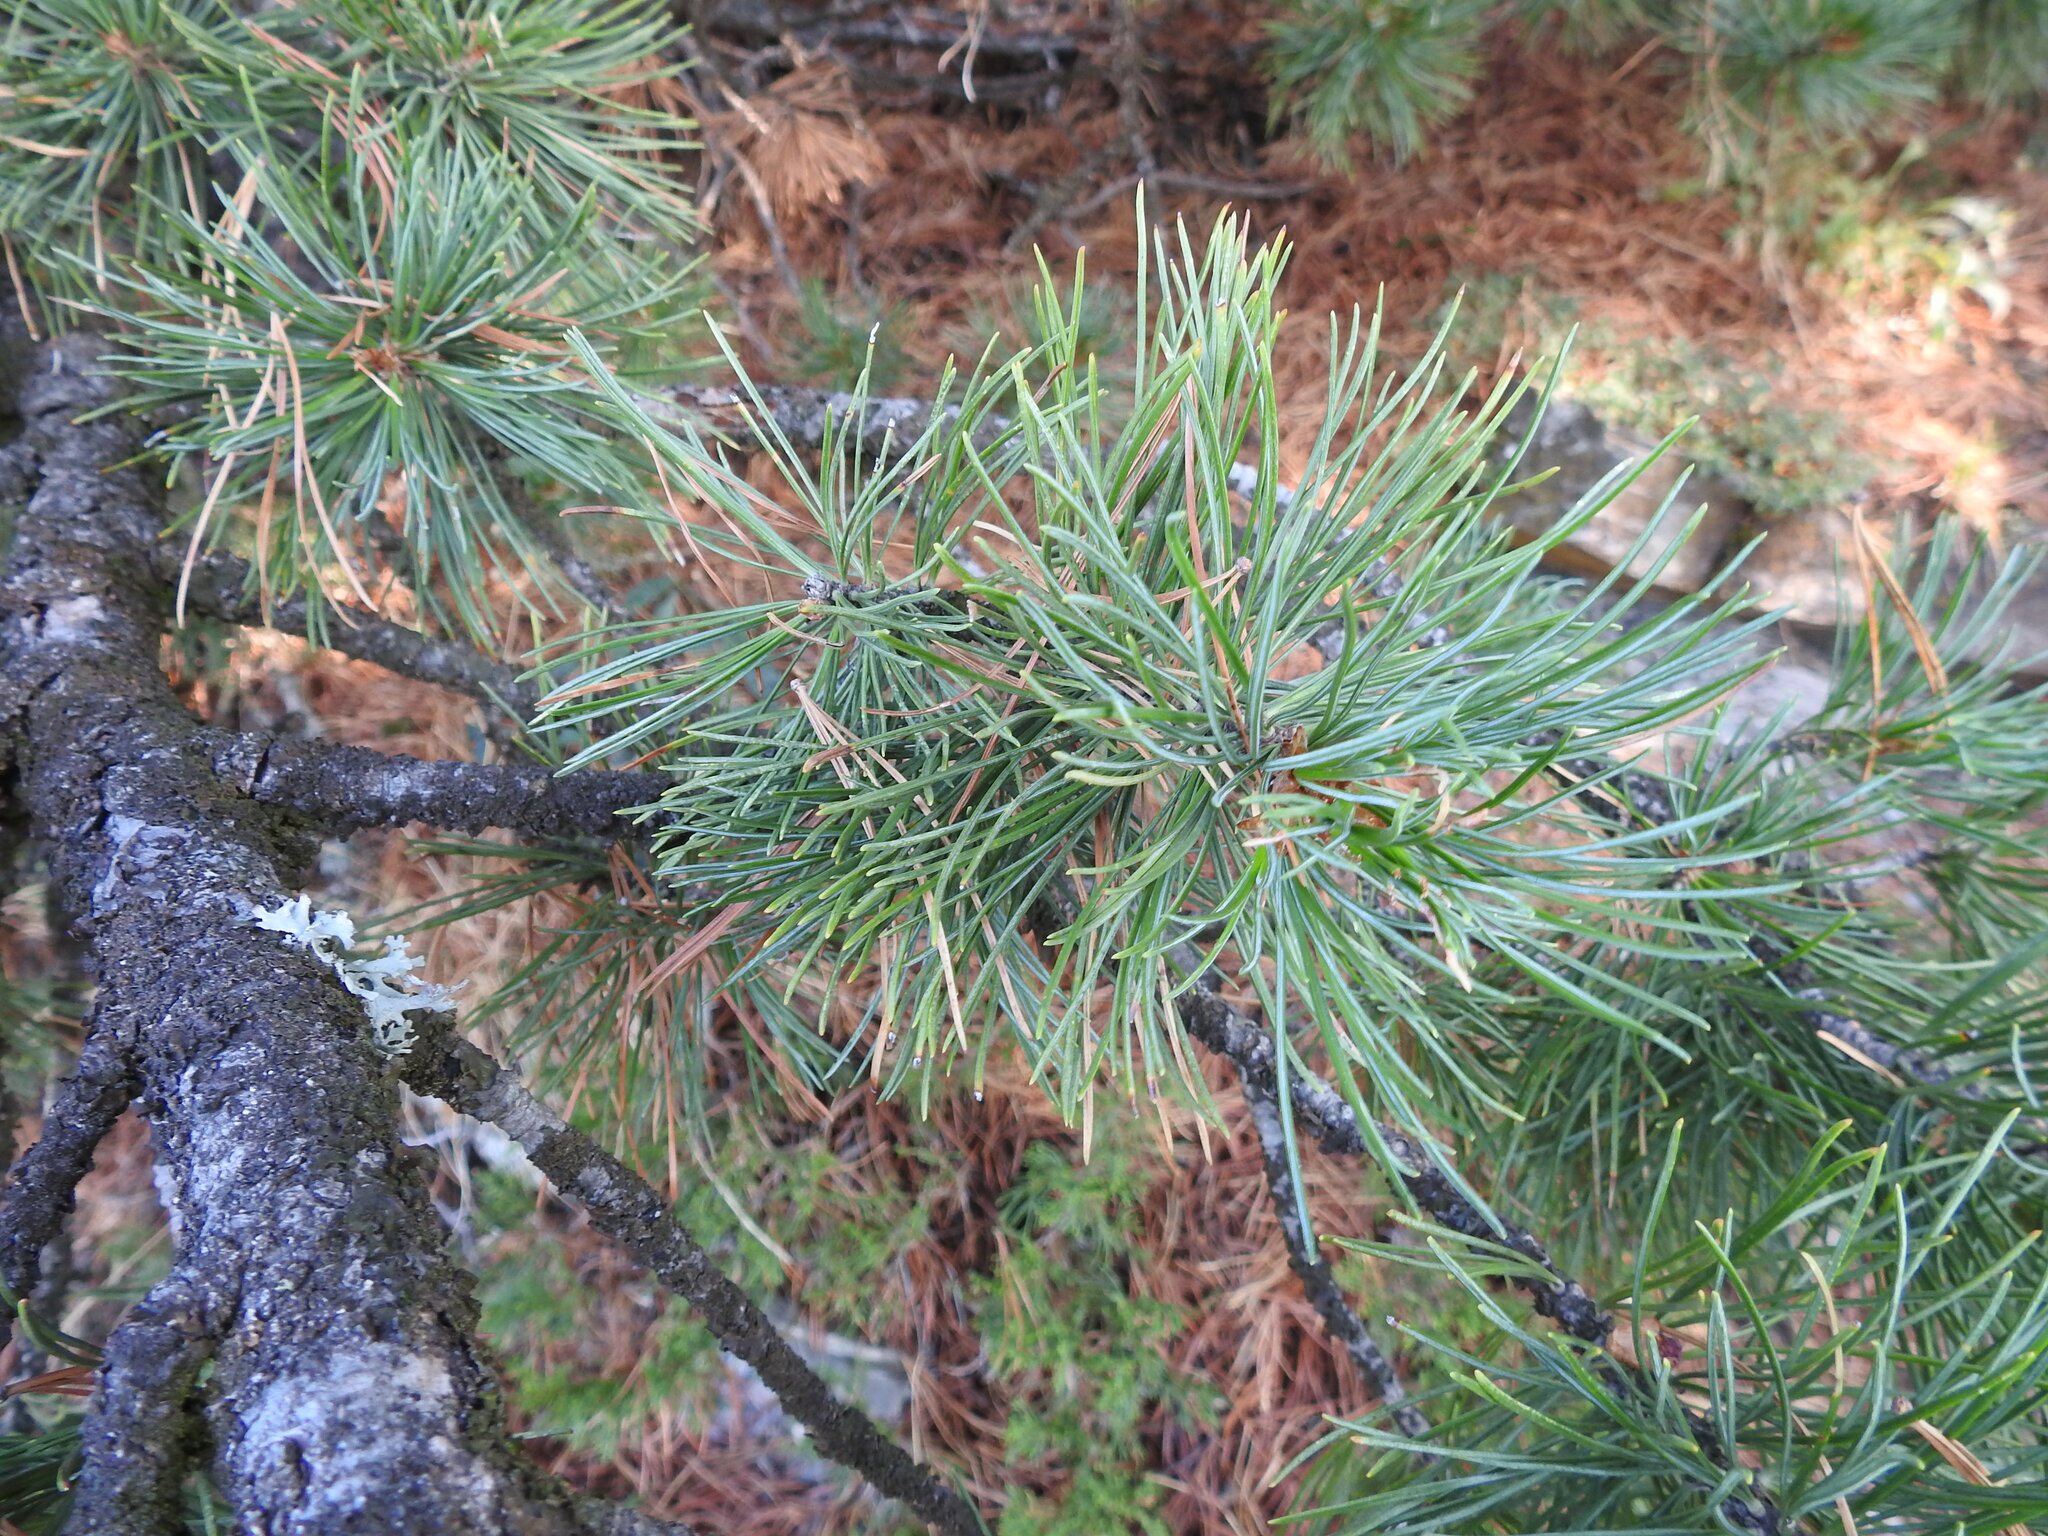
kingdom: Plantae
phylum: Tracheophyta
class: Pinopsida
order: Pinales
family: Pinaceae
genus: Pinus
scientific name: Pinus cembra
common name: Arolla pine
